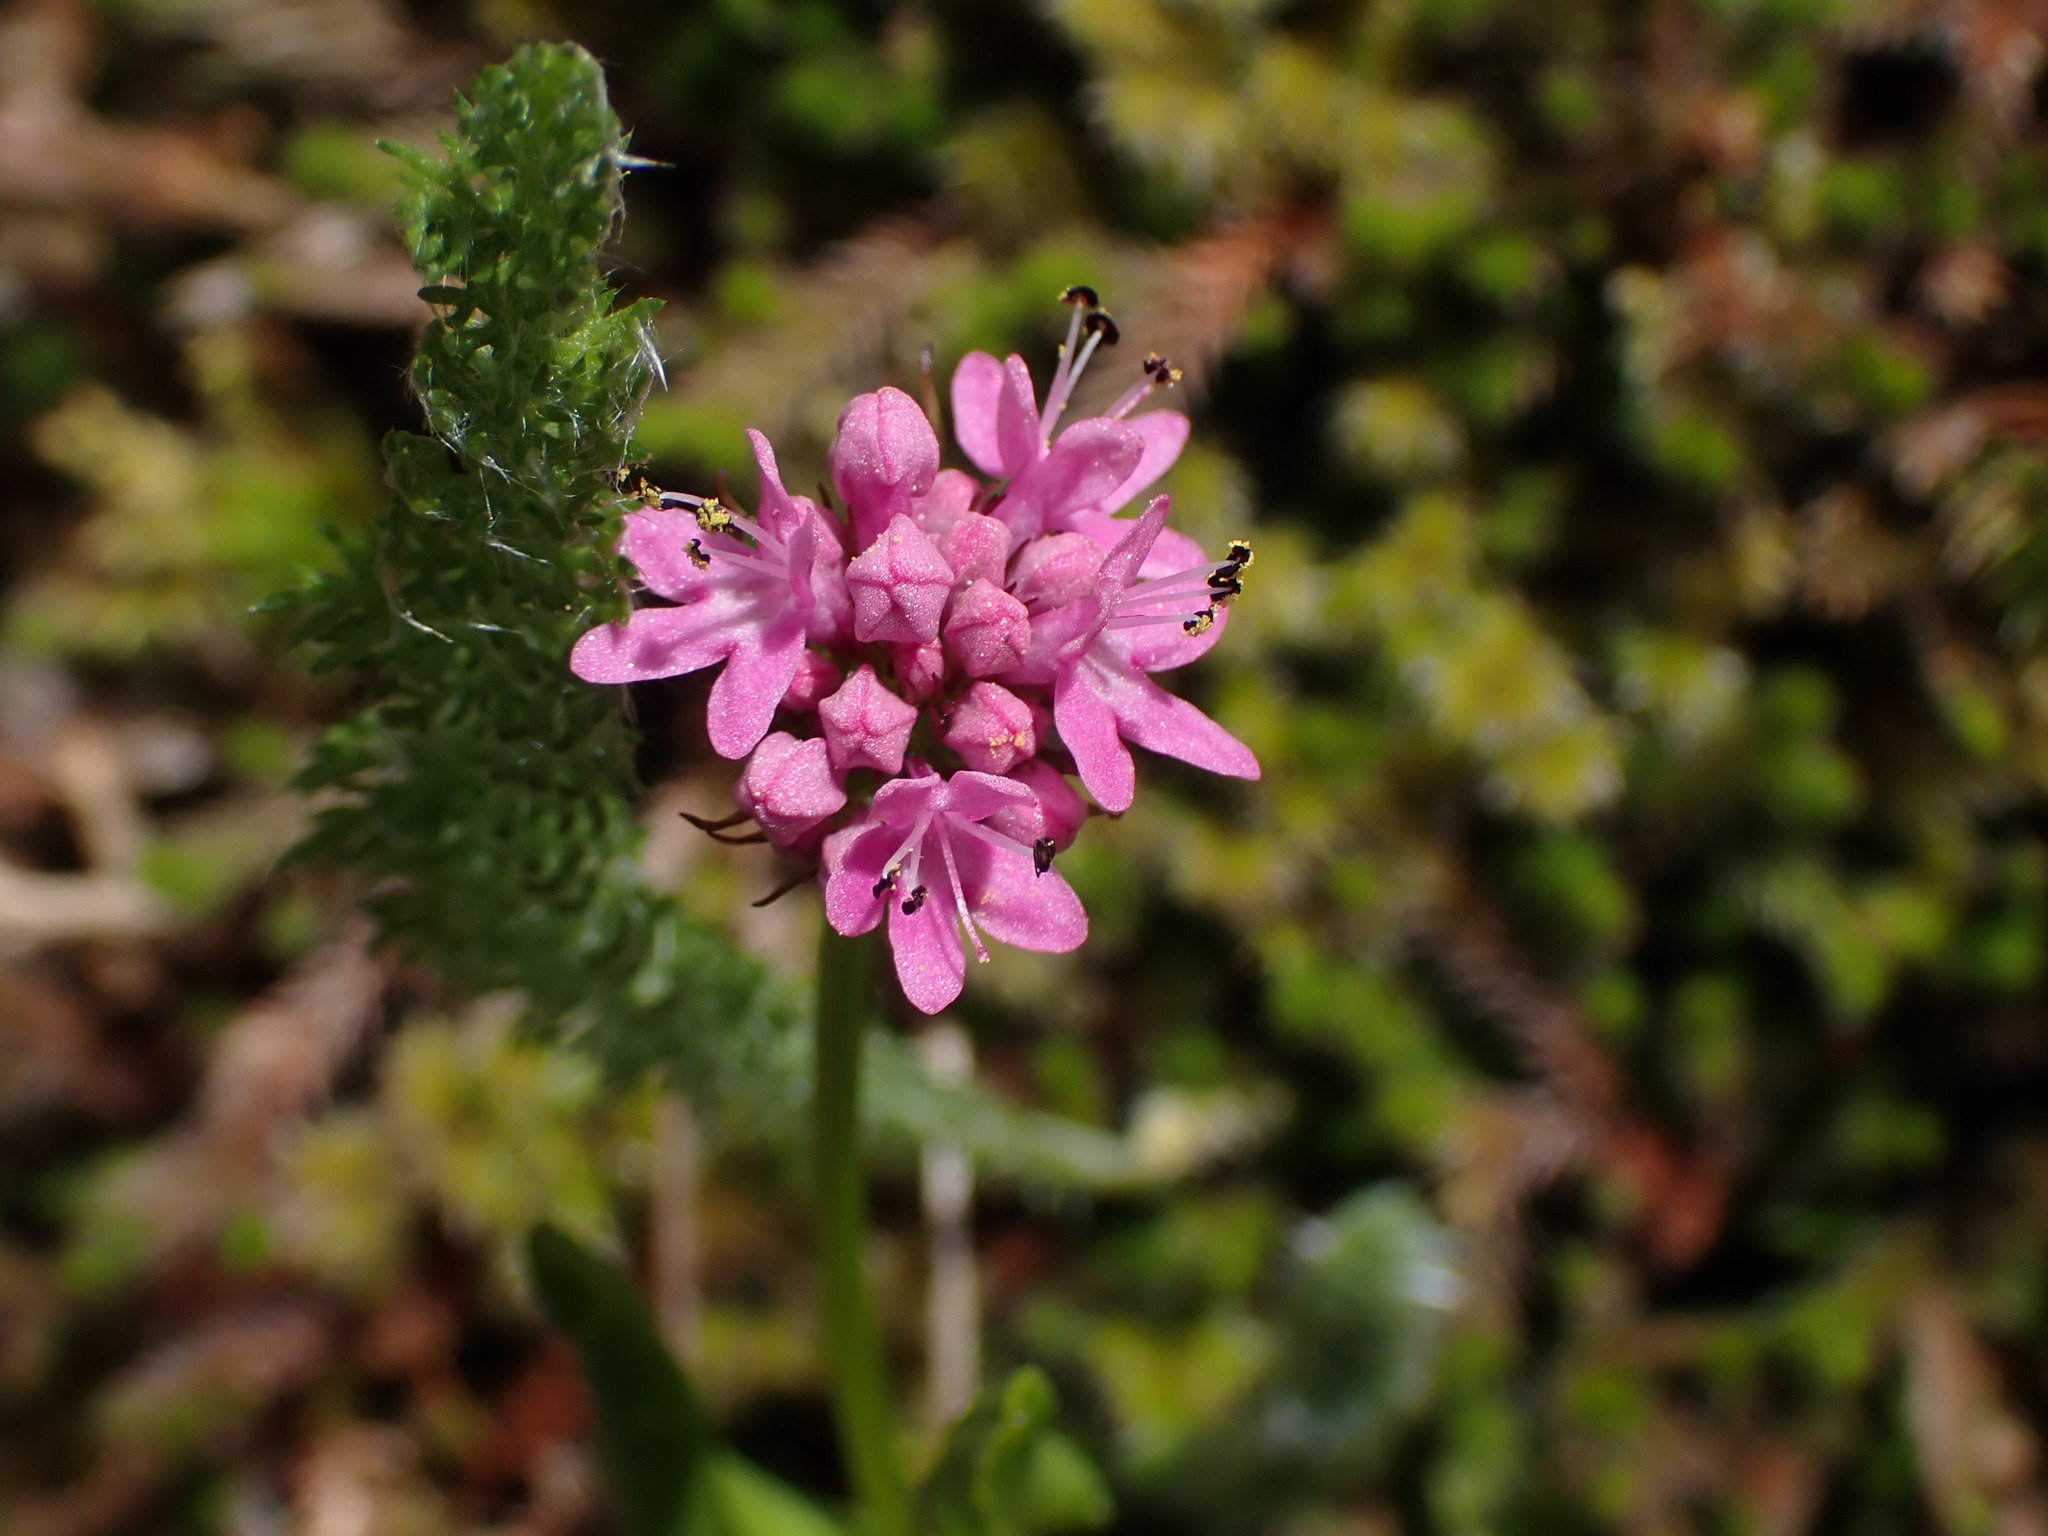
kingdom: Plantae
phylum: Tracheophyta
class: Magnoliopsida
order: Dipsacales
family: Caprifoliaceae
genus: Plectritis
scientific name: Plectritis congesta
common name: Pink plectritis
